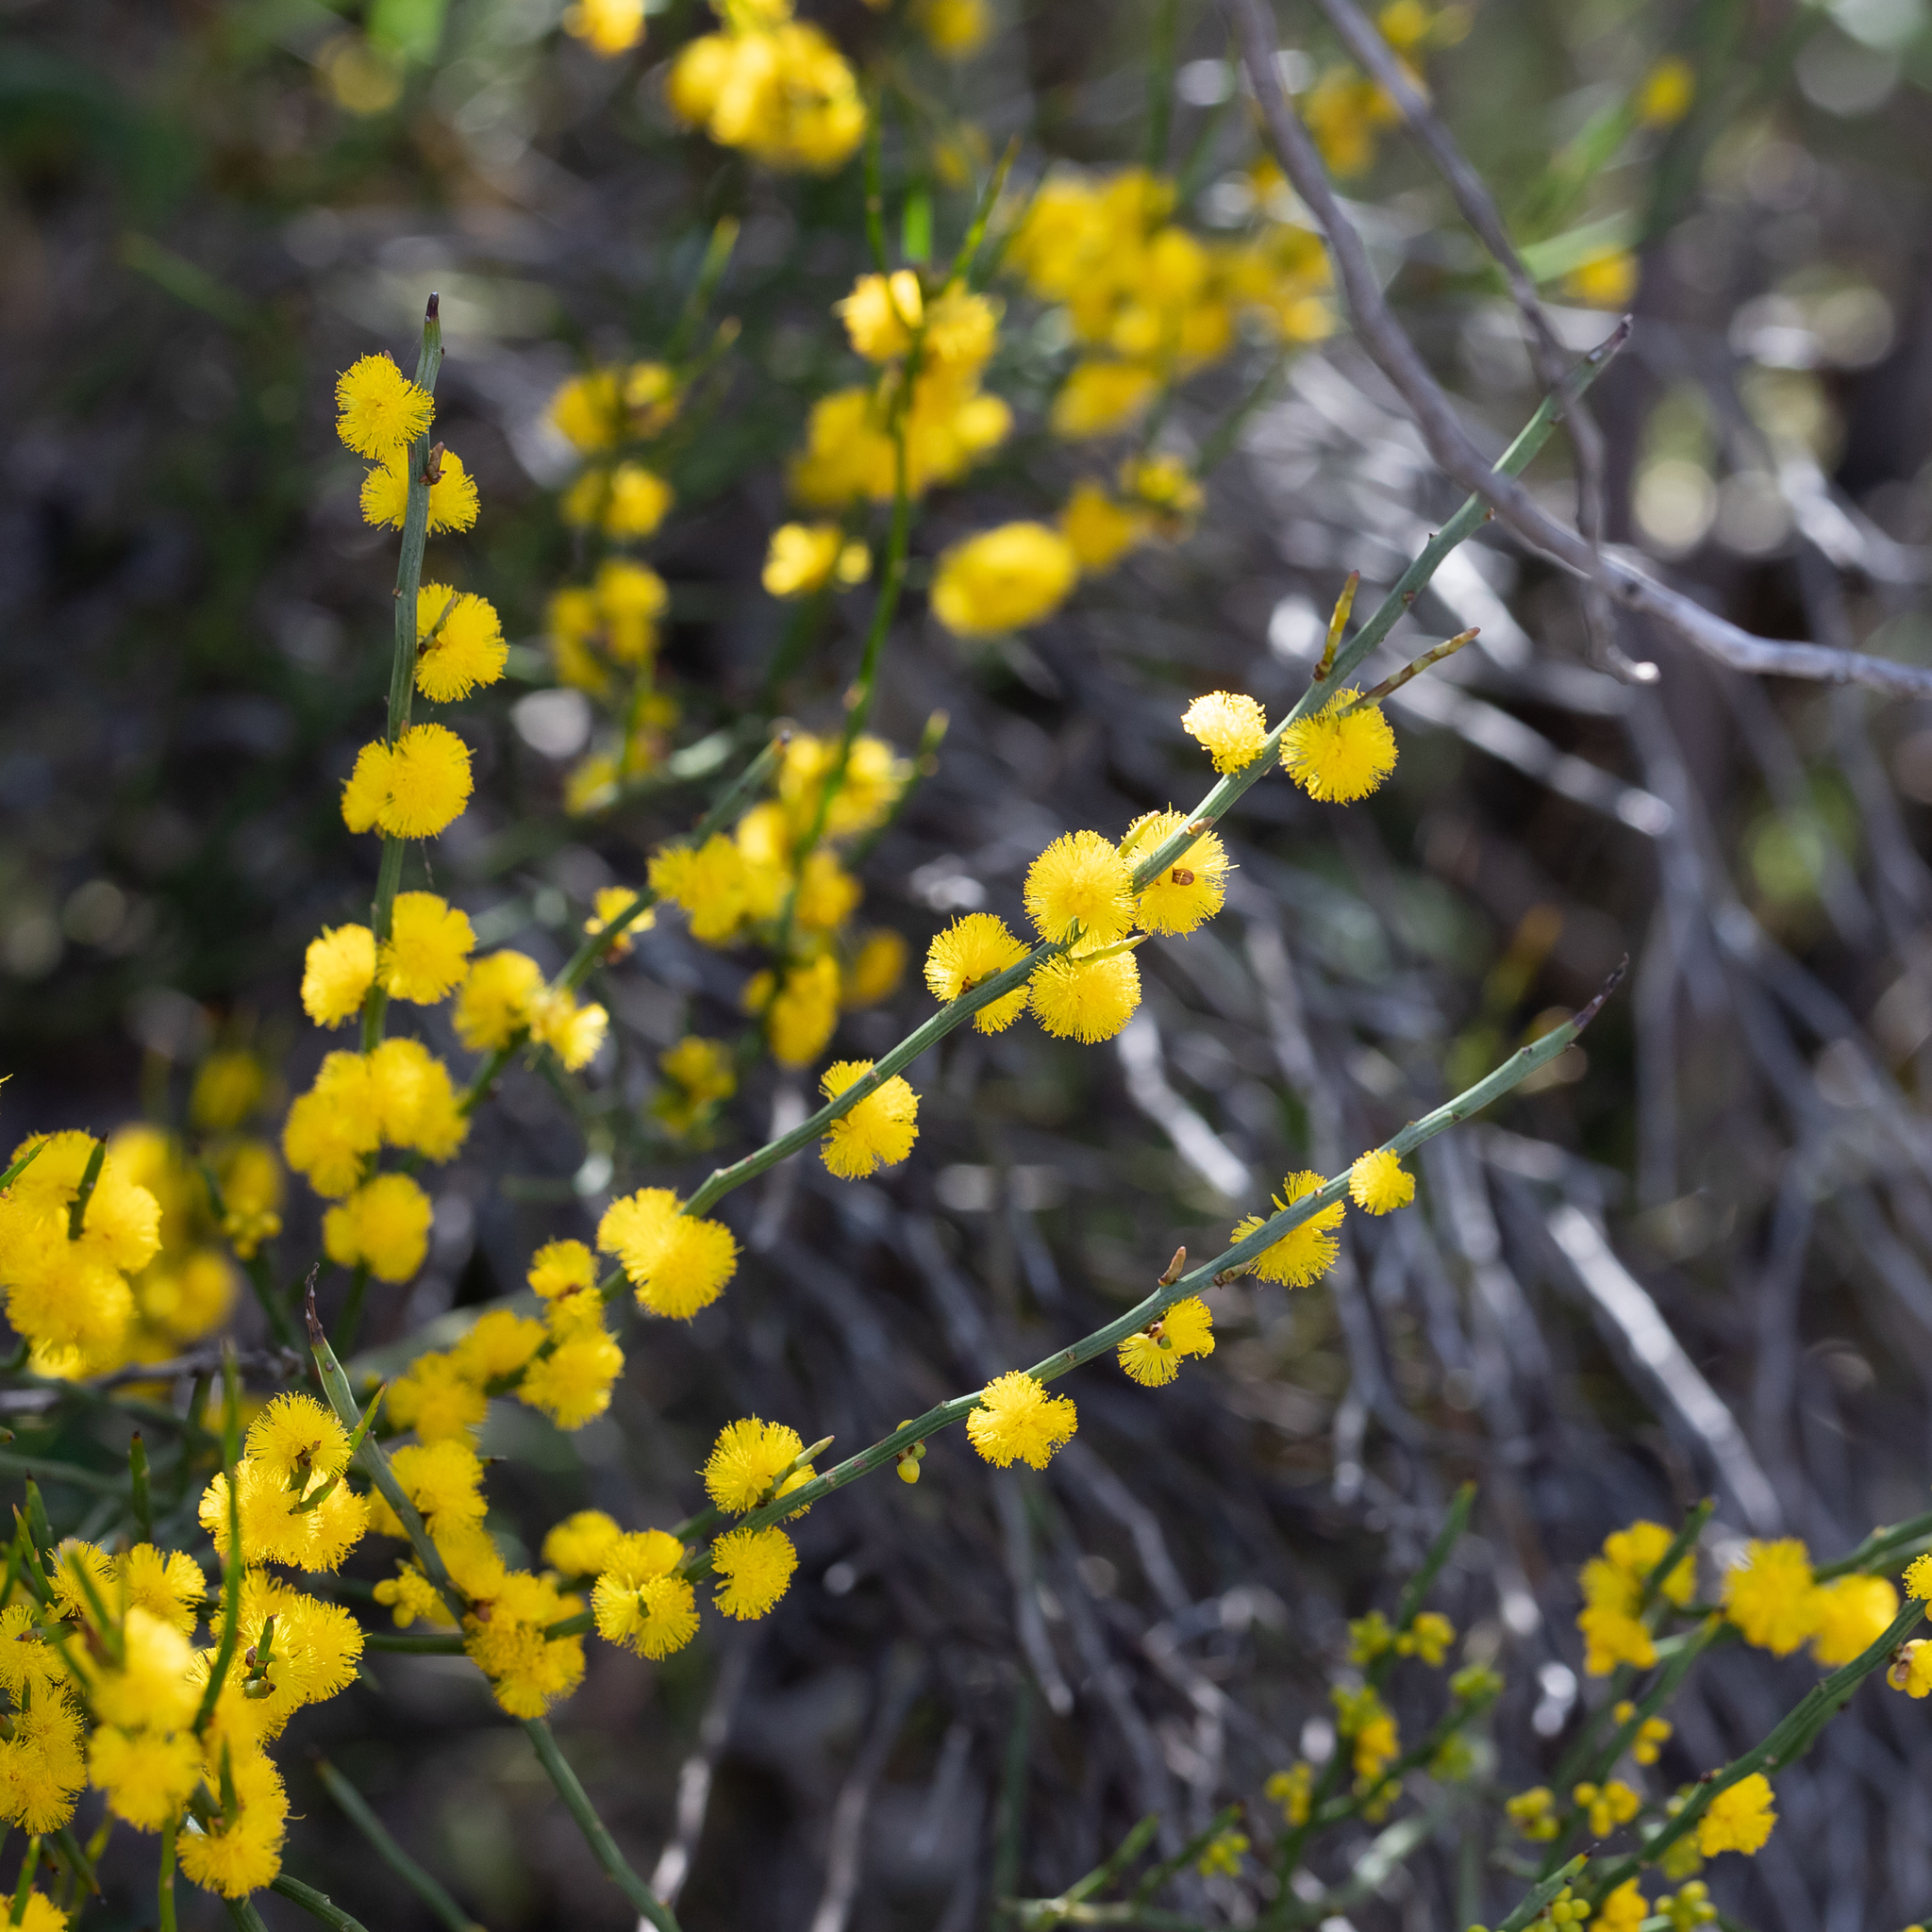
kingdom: Plantae
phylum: Tracheophyta
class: Magnoliopsida
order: Fabales
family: Fabaceae
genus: Acacia
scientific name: Acacia spinescens
